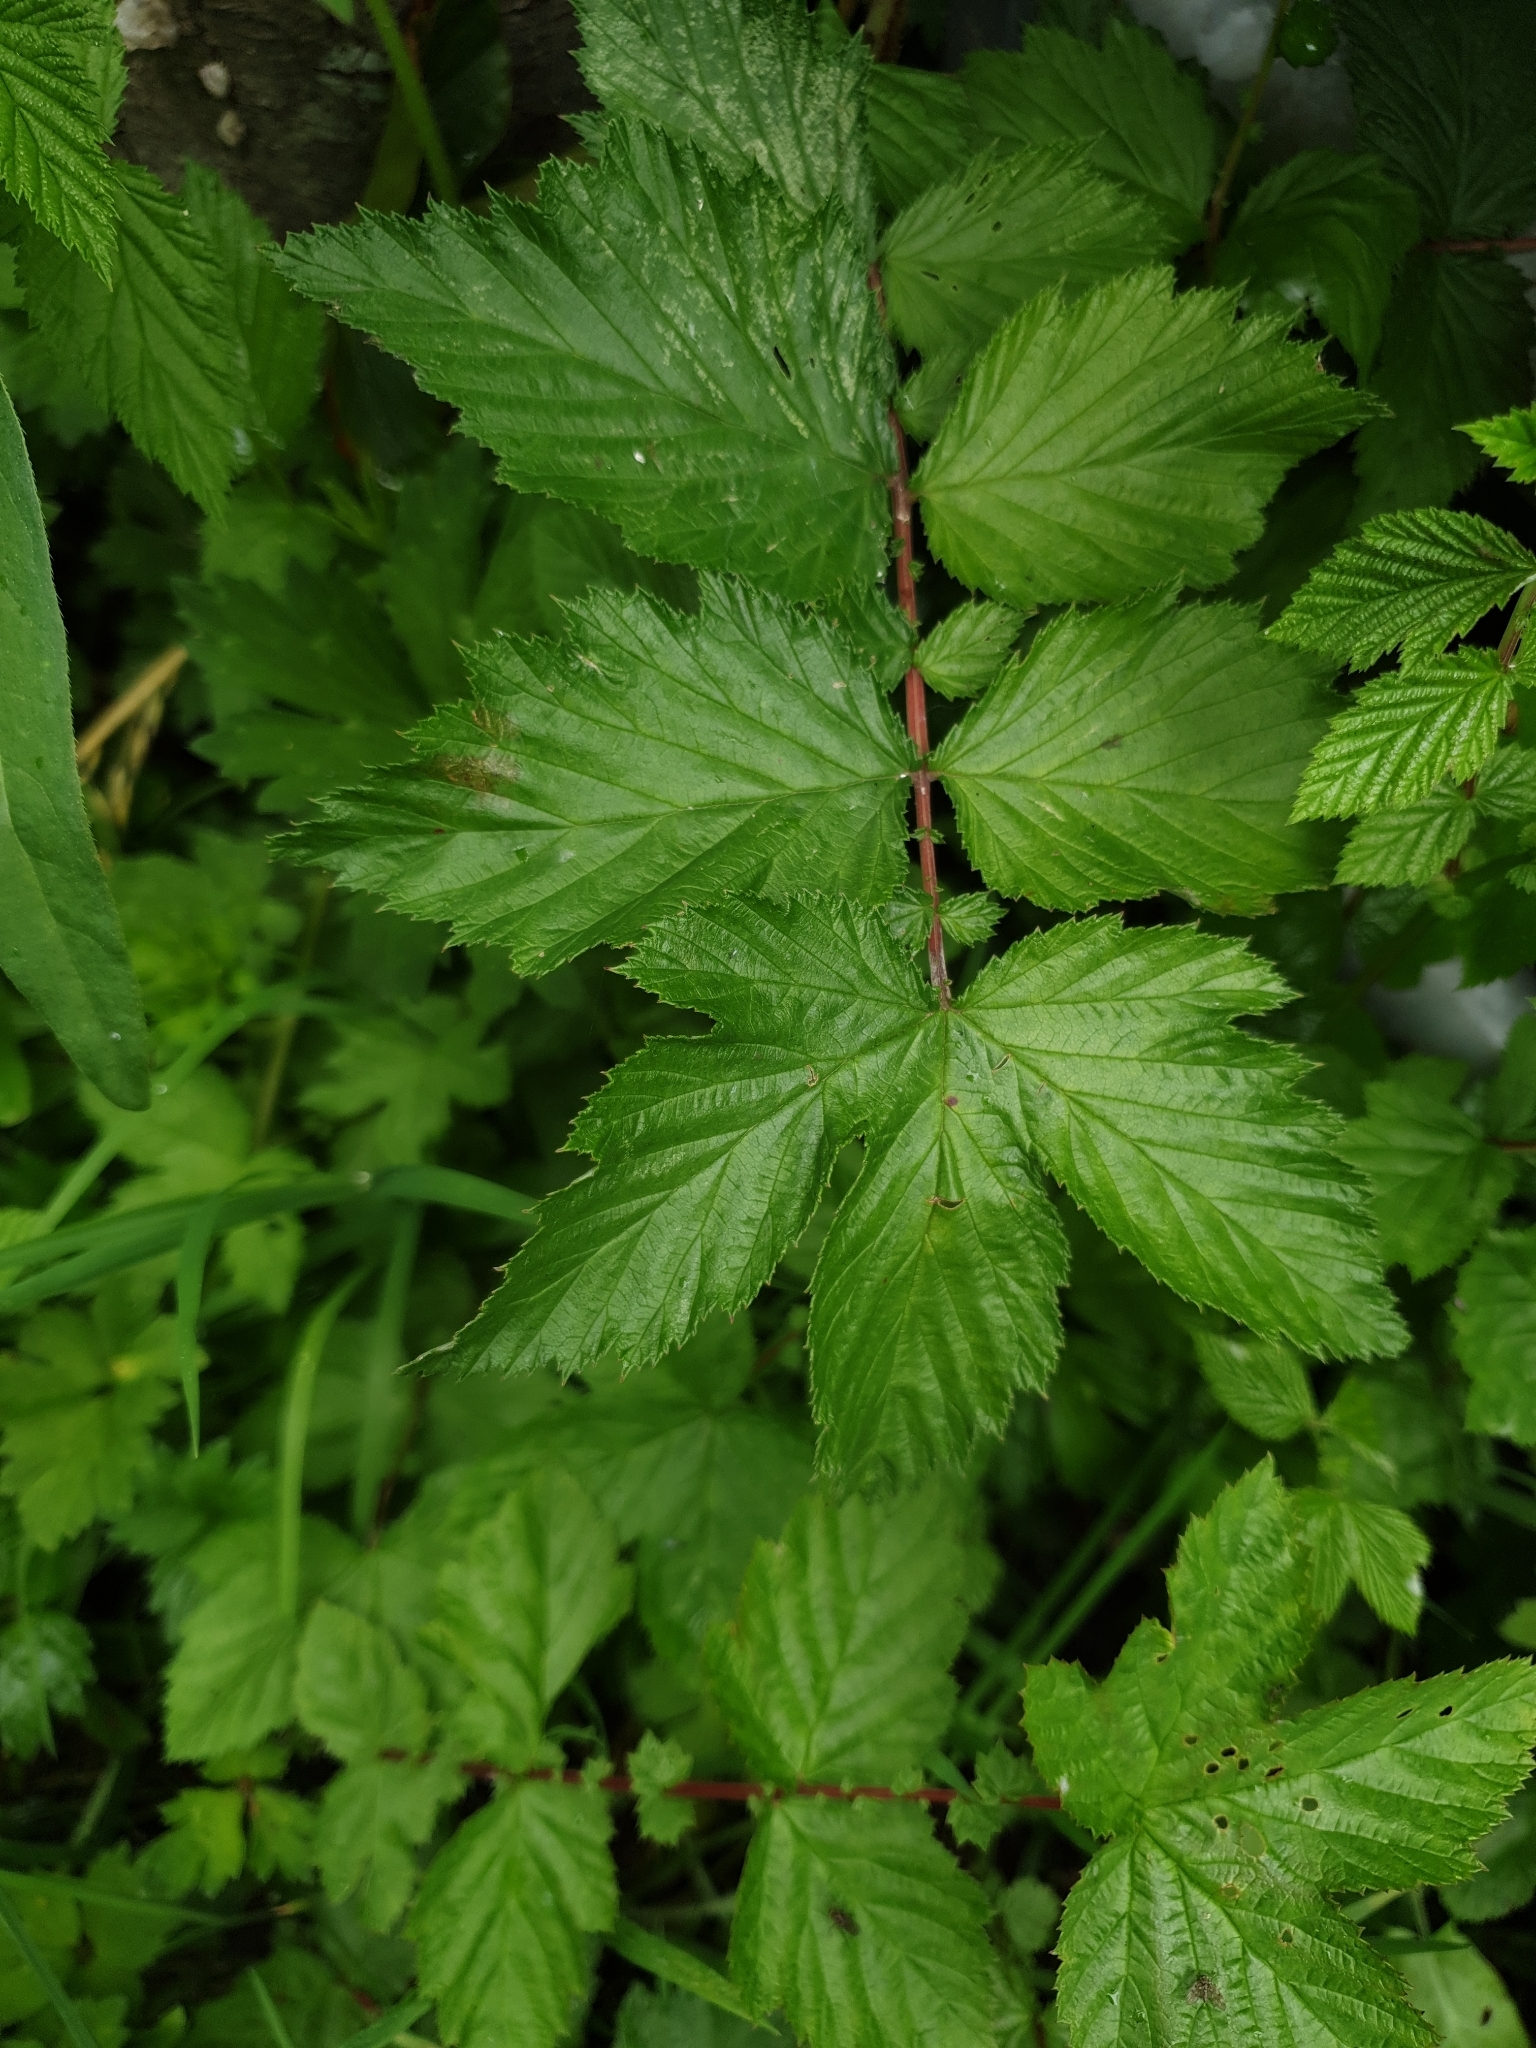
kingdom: Plantae
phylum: Tracheophyta
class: Magnoliopsida
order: Rosales
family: Rosaceae
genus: Filipendula
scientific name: Filipendula ulmaria
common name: Meadowsweet
